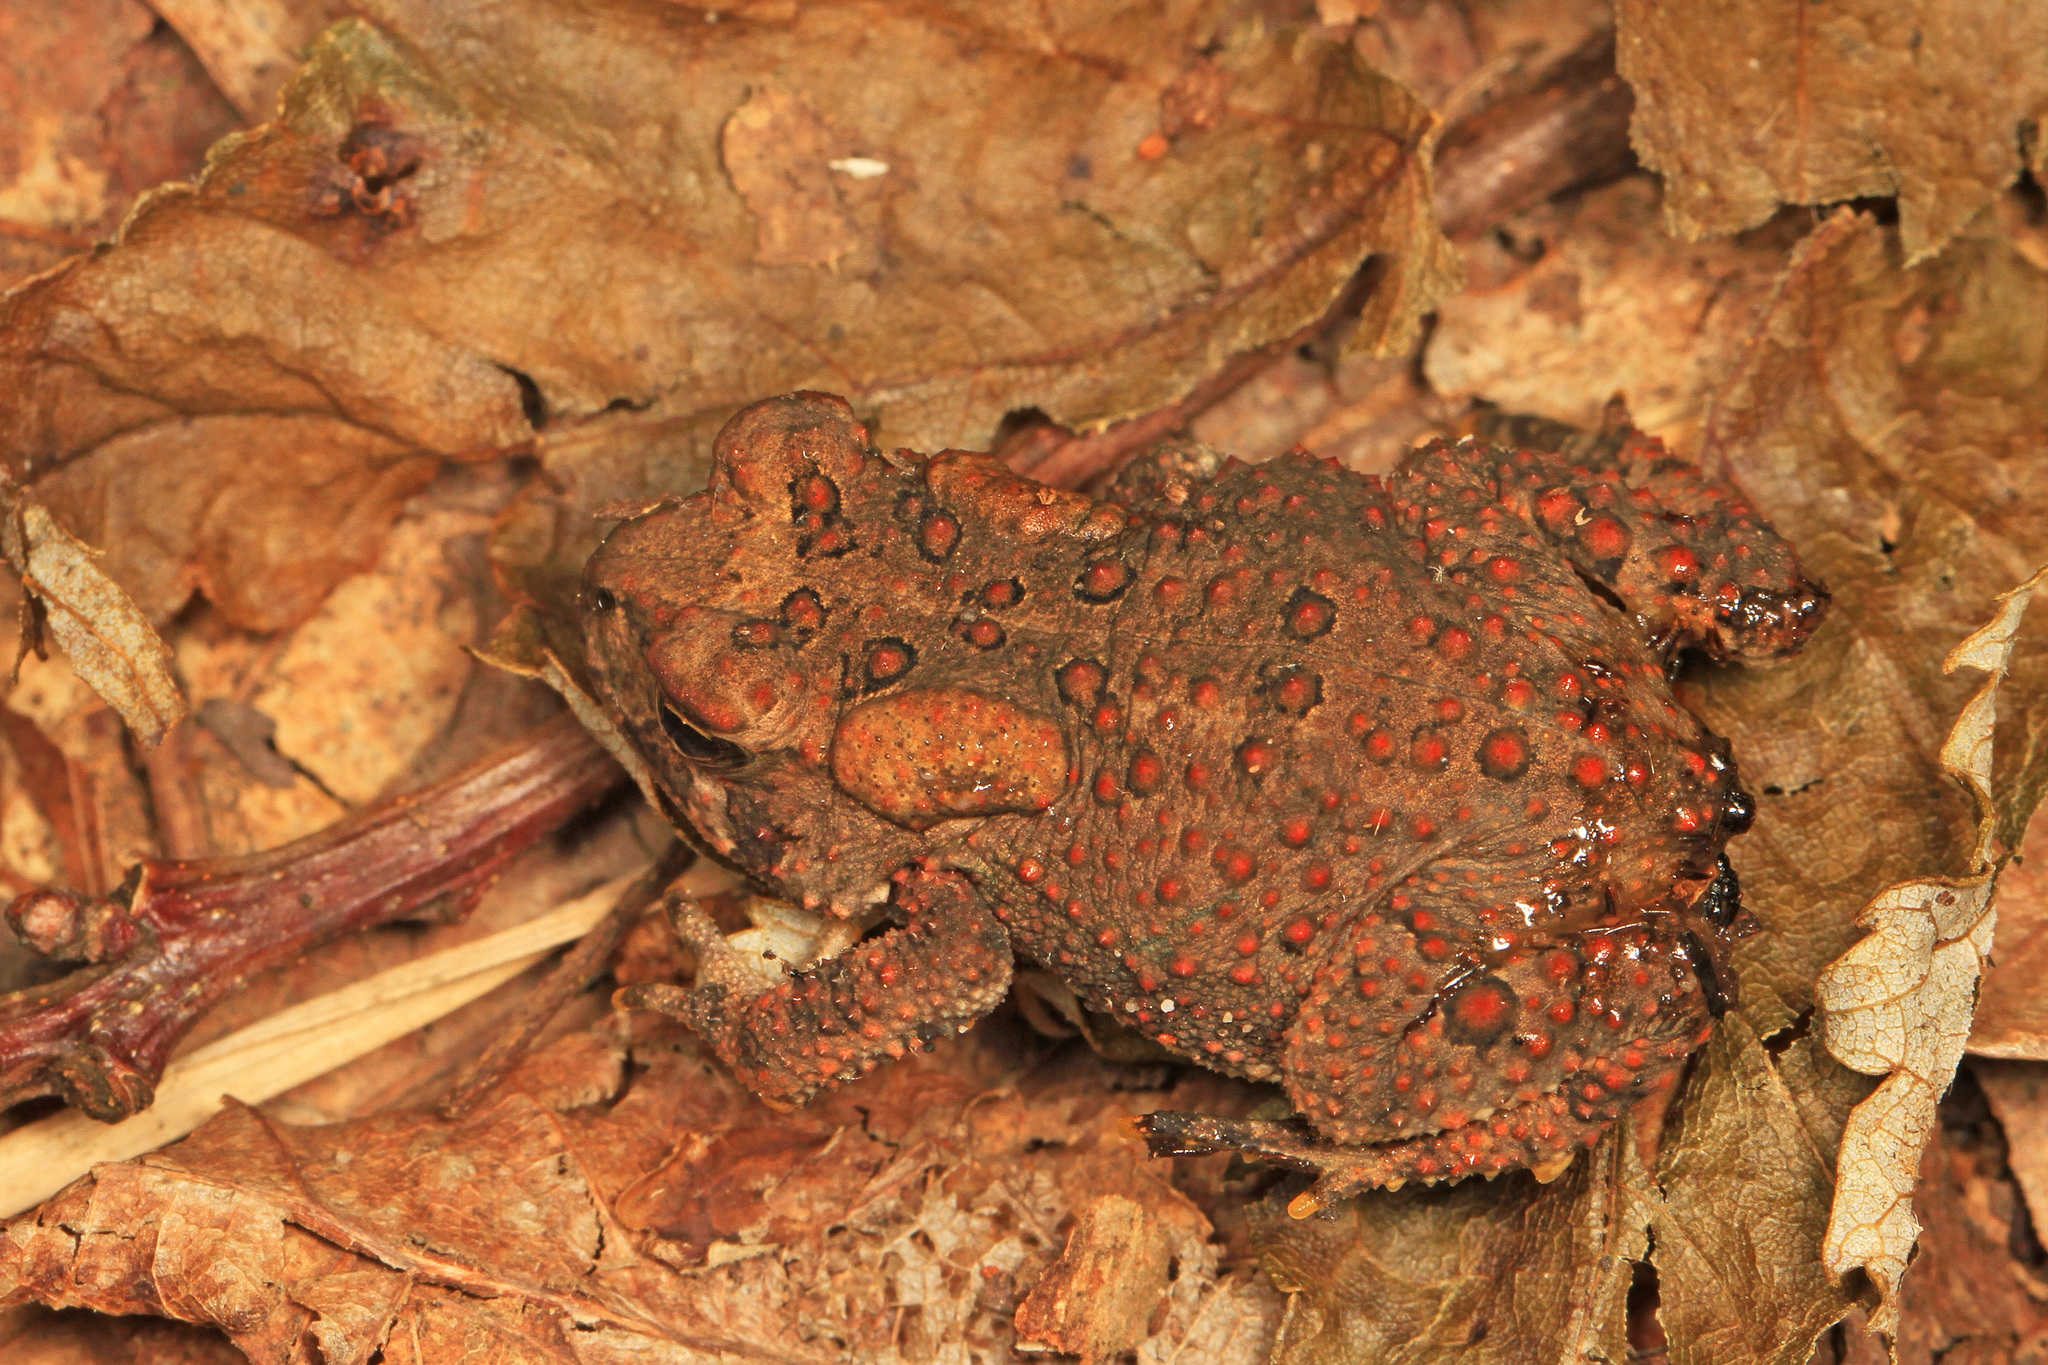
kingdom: Animalia
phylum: Chordata
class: Amphibia
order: Anura
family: Bufonidae
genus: Anaxyrus
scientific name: Anaxyrus americanus
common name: American toad
